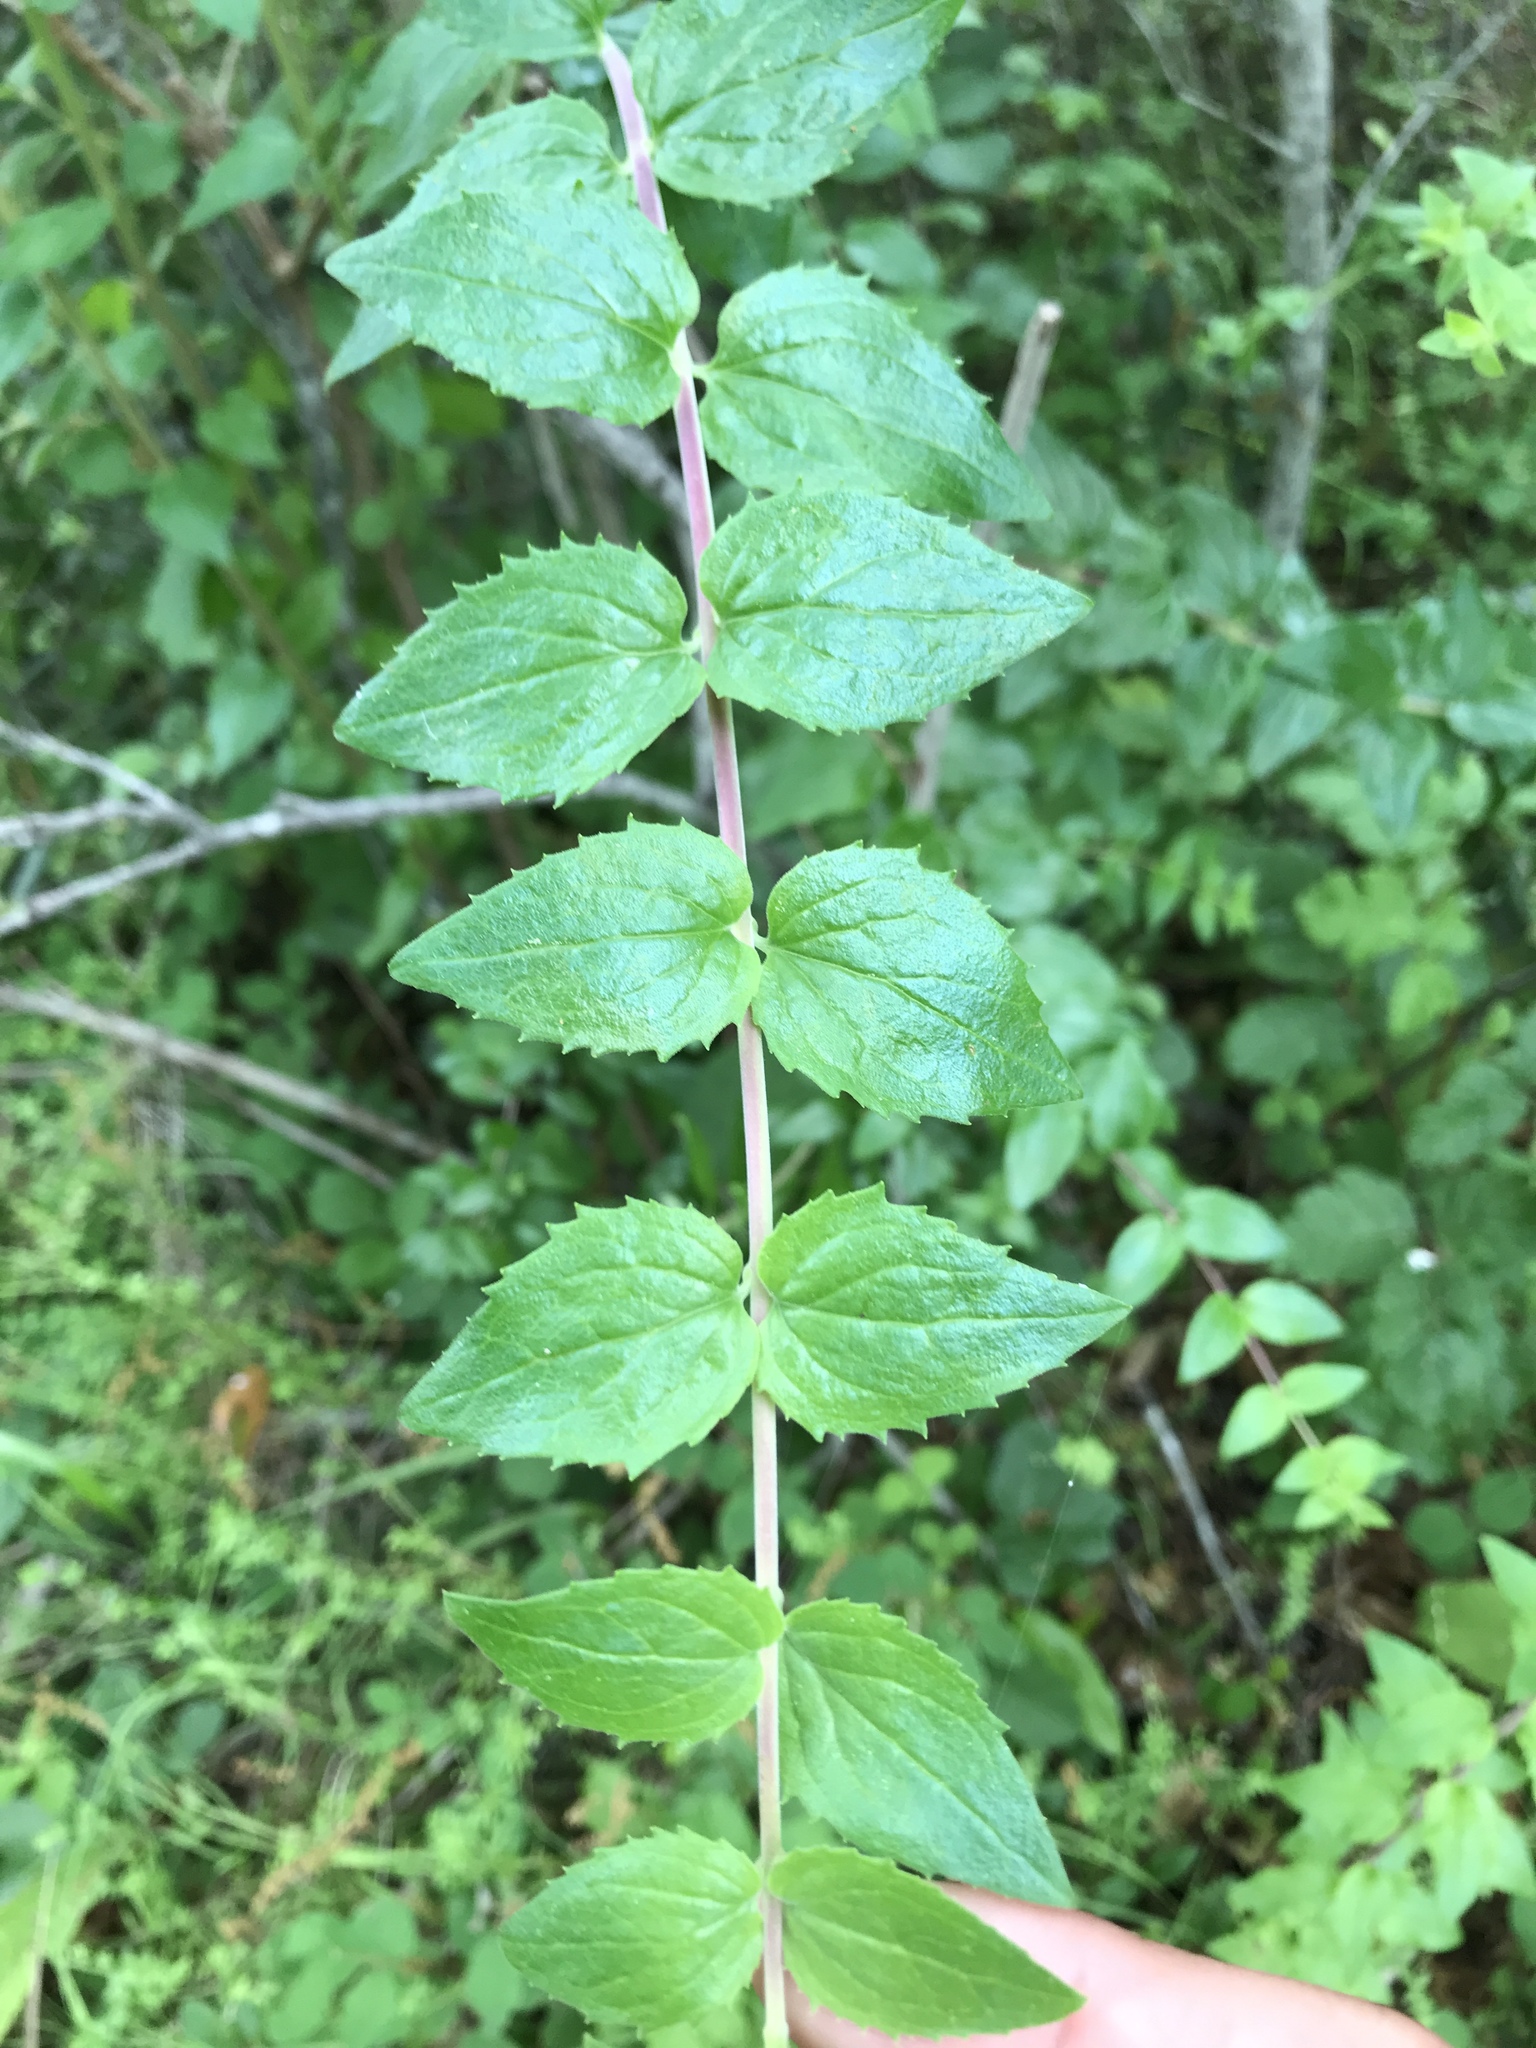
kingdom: Plantae
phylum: Tracheophyta
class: Magnoliopsida
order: Lamiales
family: Plantaginaceae
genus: Keckiella
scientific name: Keckiella cordifolia
